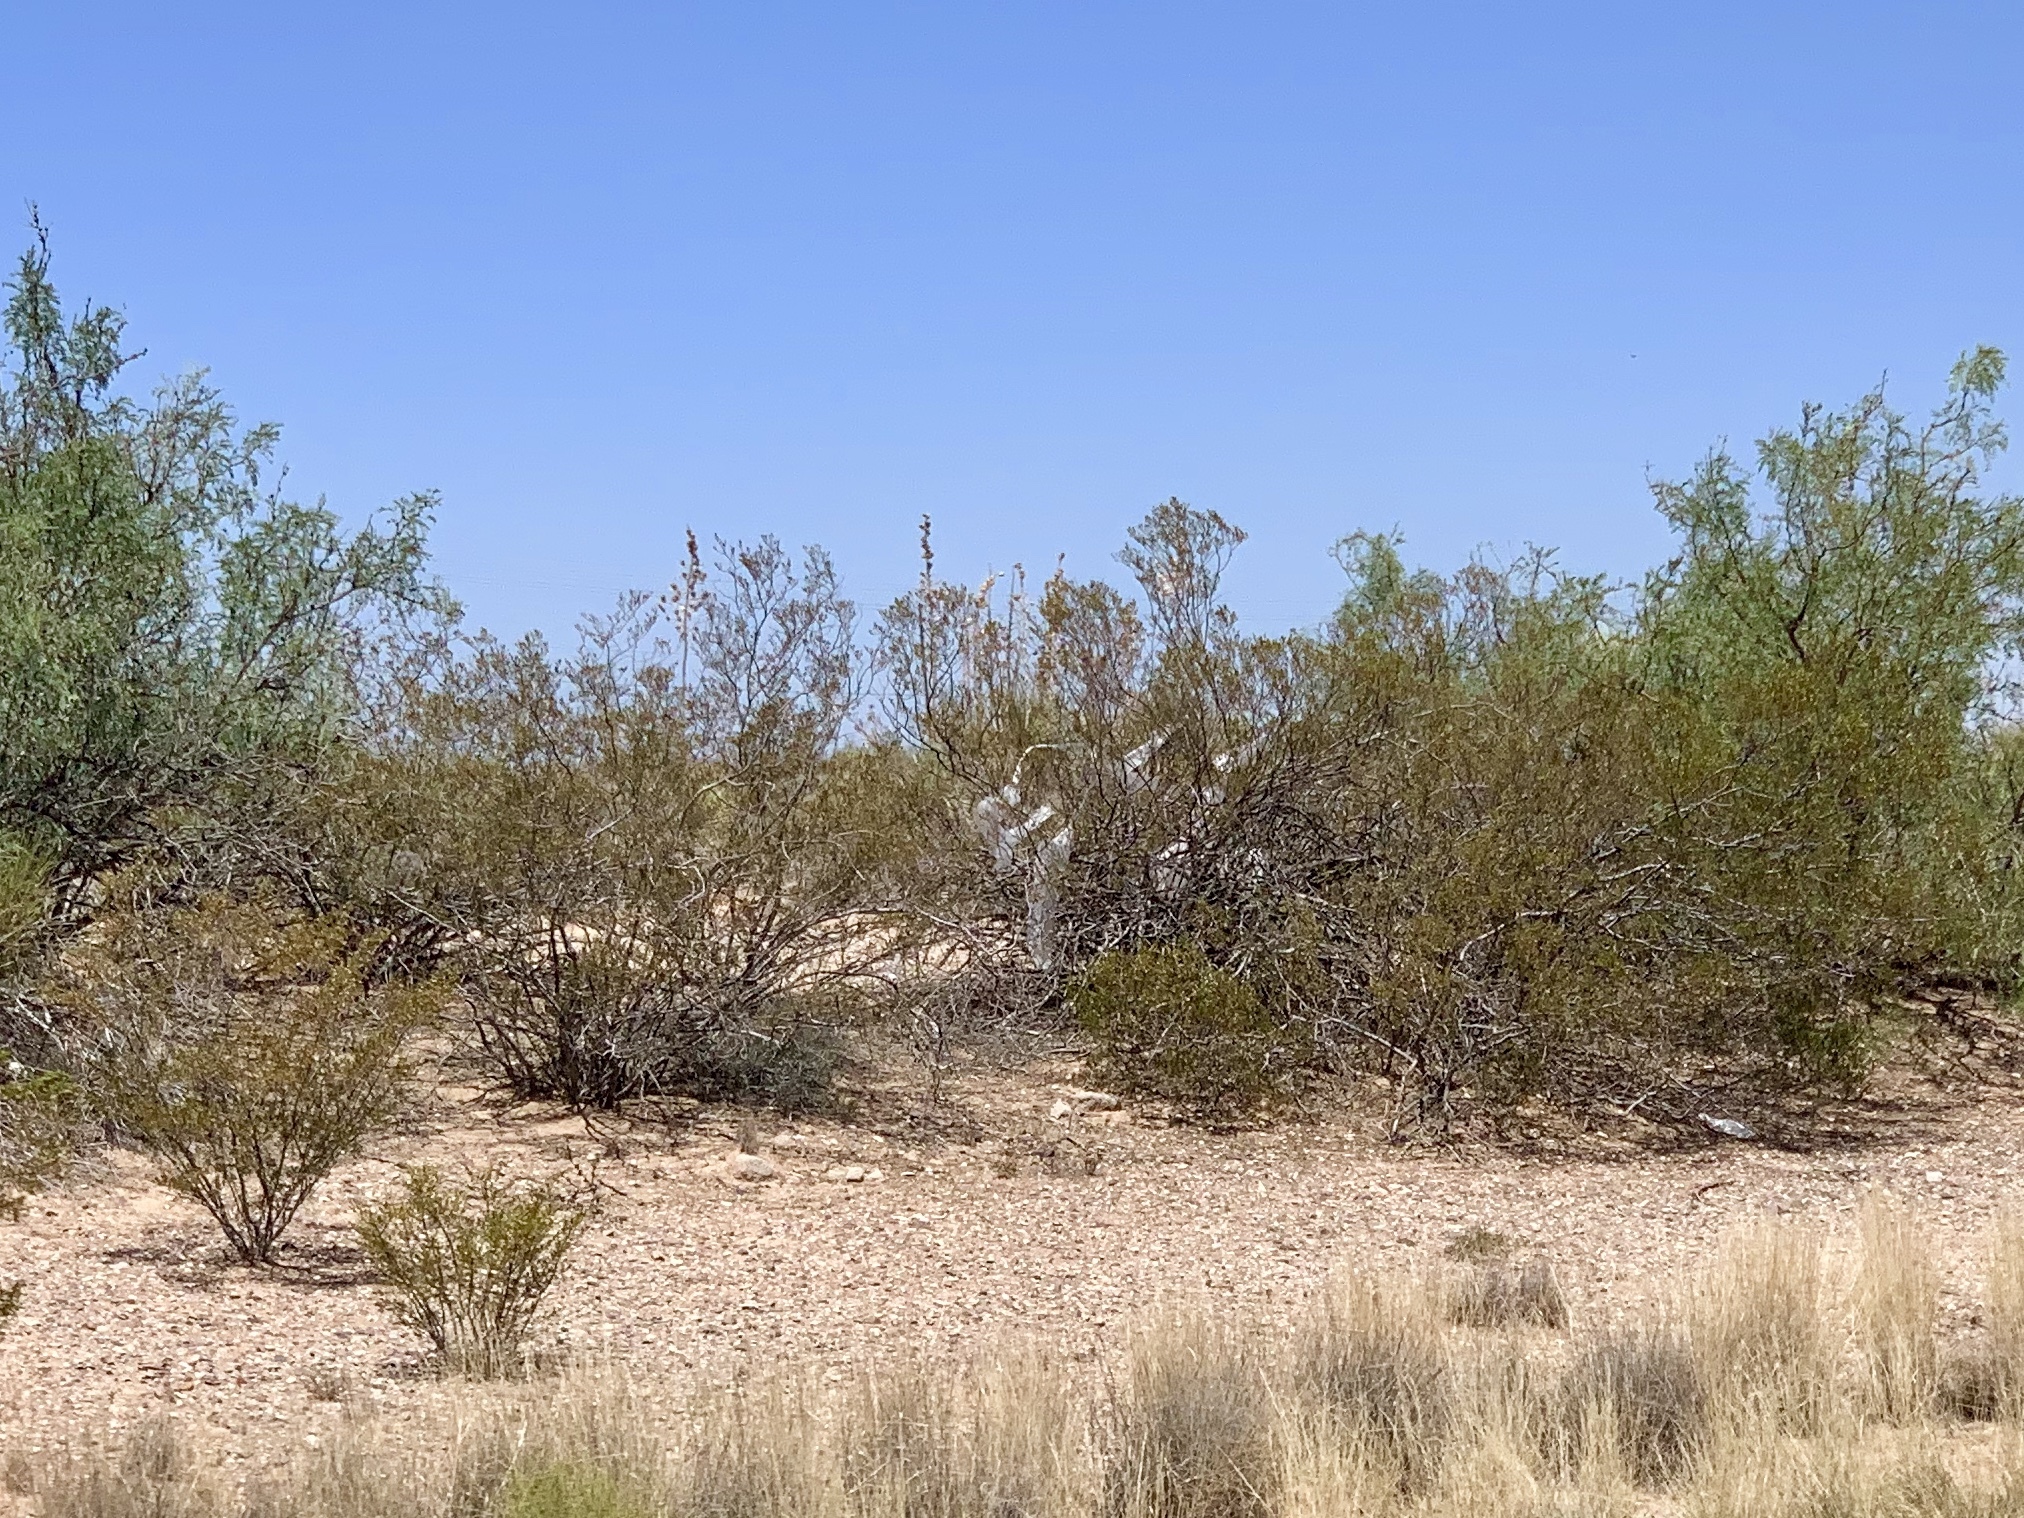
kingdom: Plantae
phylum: Tracheophyta
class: Magnoliopsida
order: Zygophyllales
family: Zygophyllaceae
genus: Larrea
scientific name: Larrea tridentata
